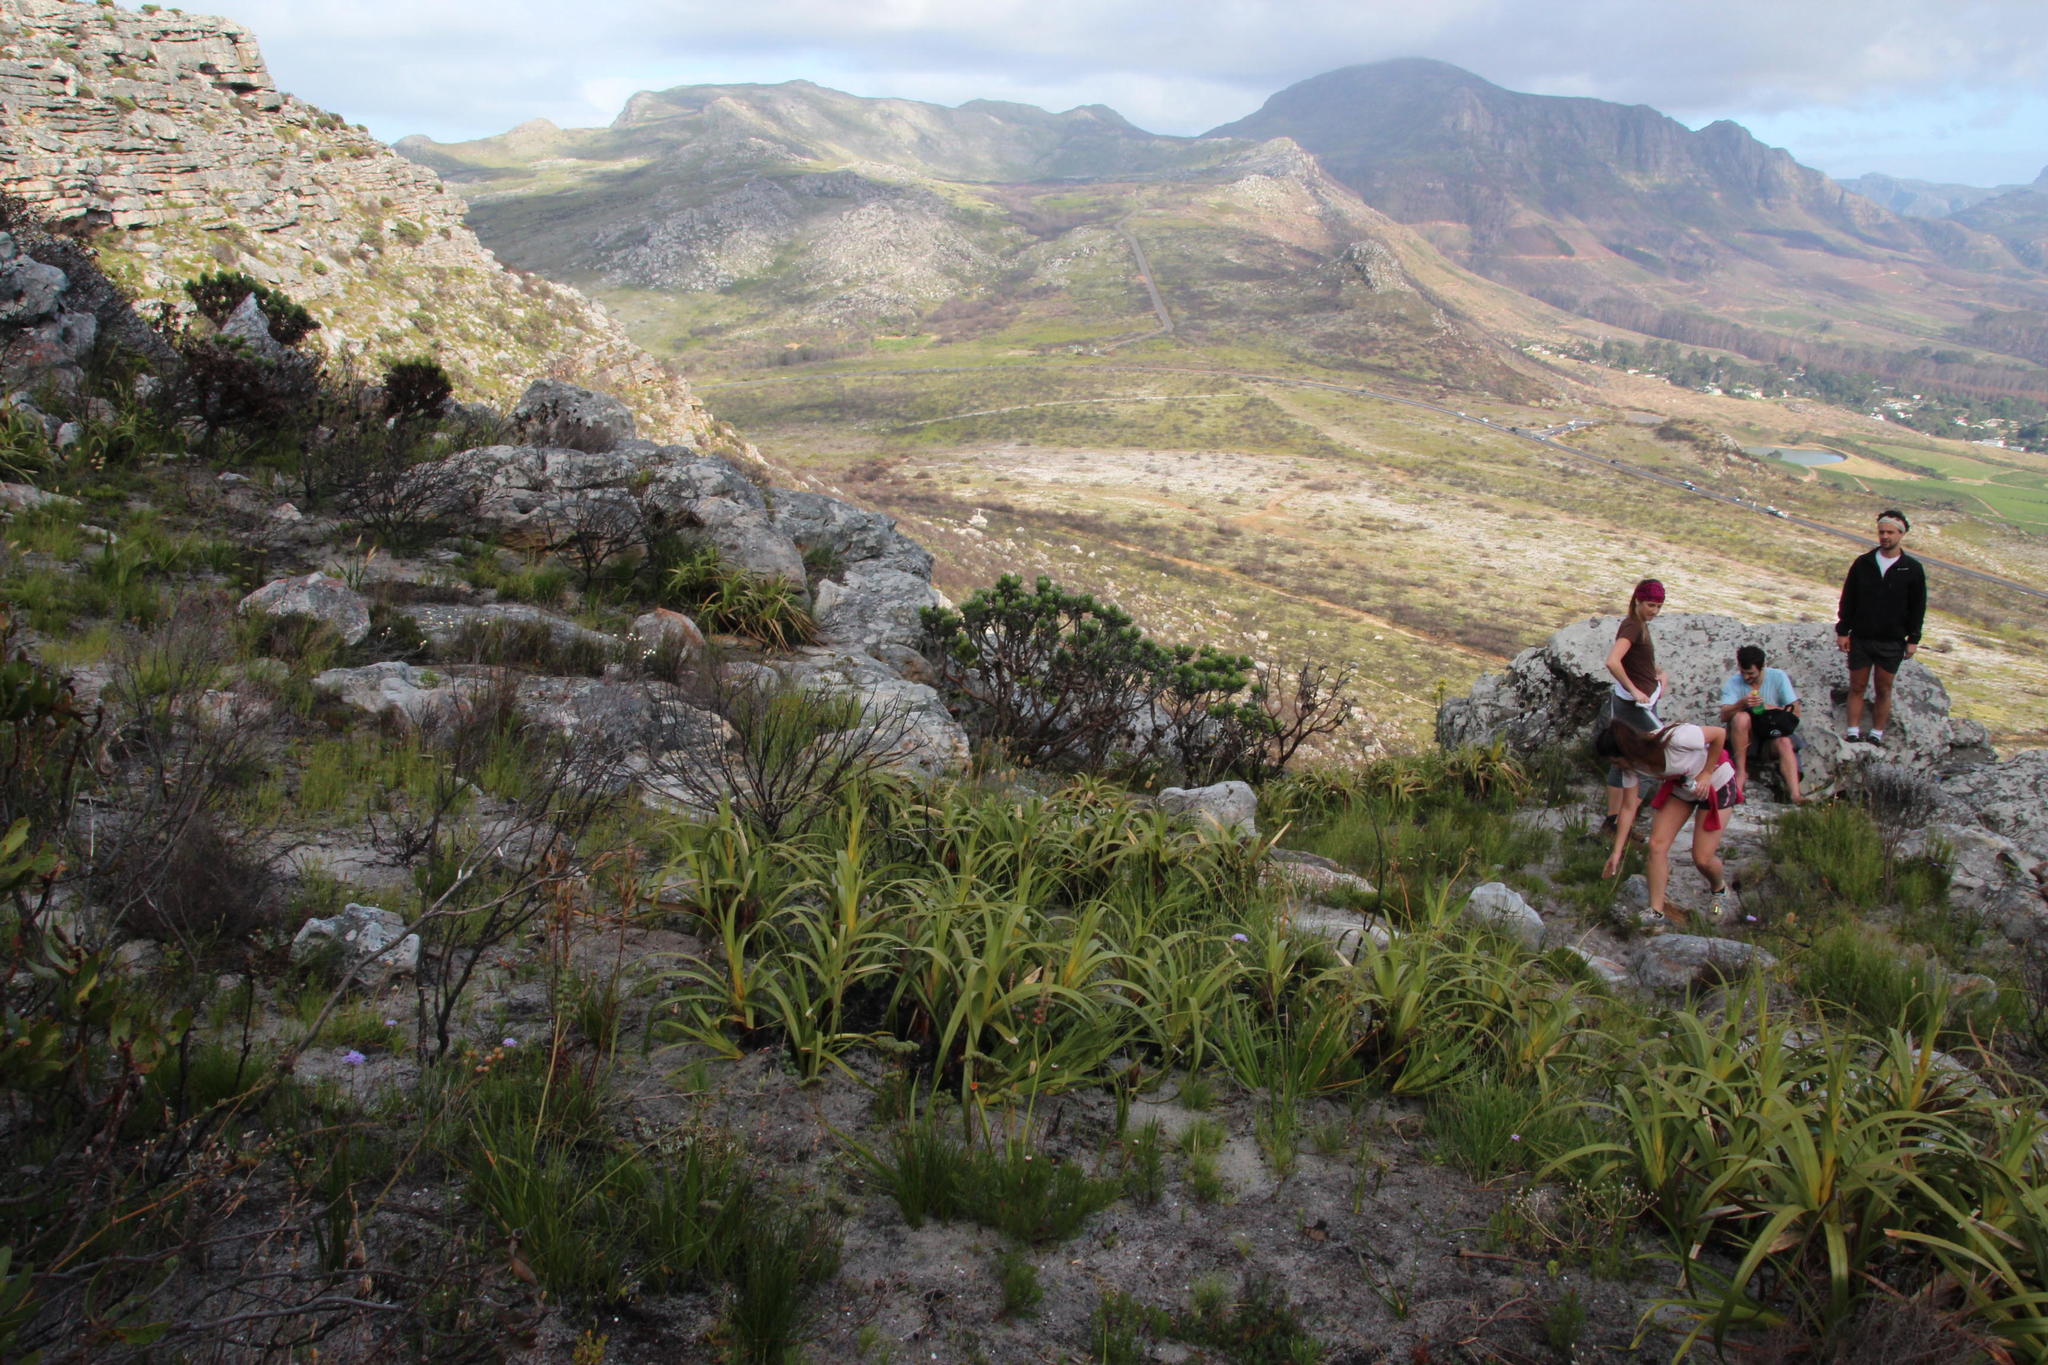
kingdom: Plantae
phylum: Tracheophyta
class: Liliopsida
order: Poales
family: Cyperaceae
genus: Tetraria
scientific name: Tetraria thermalis
